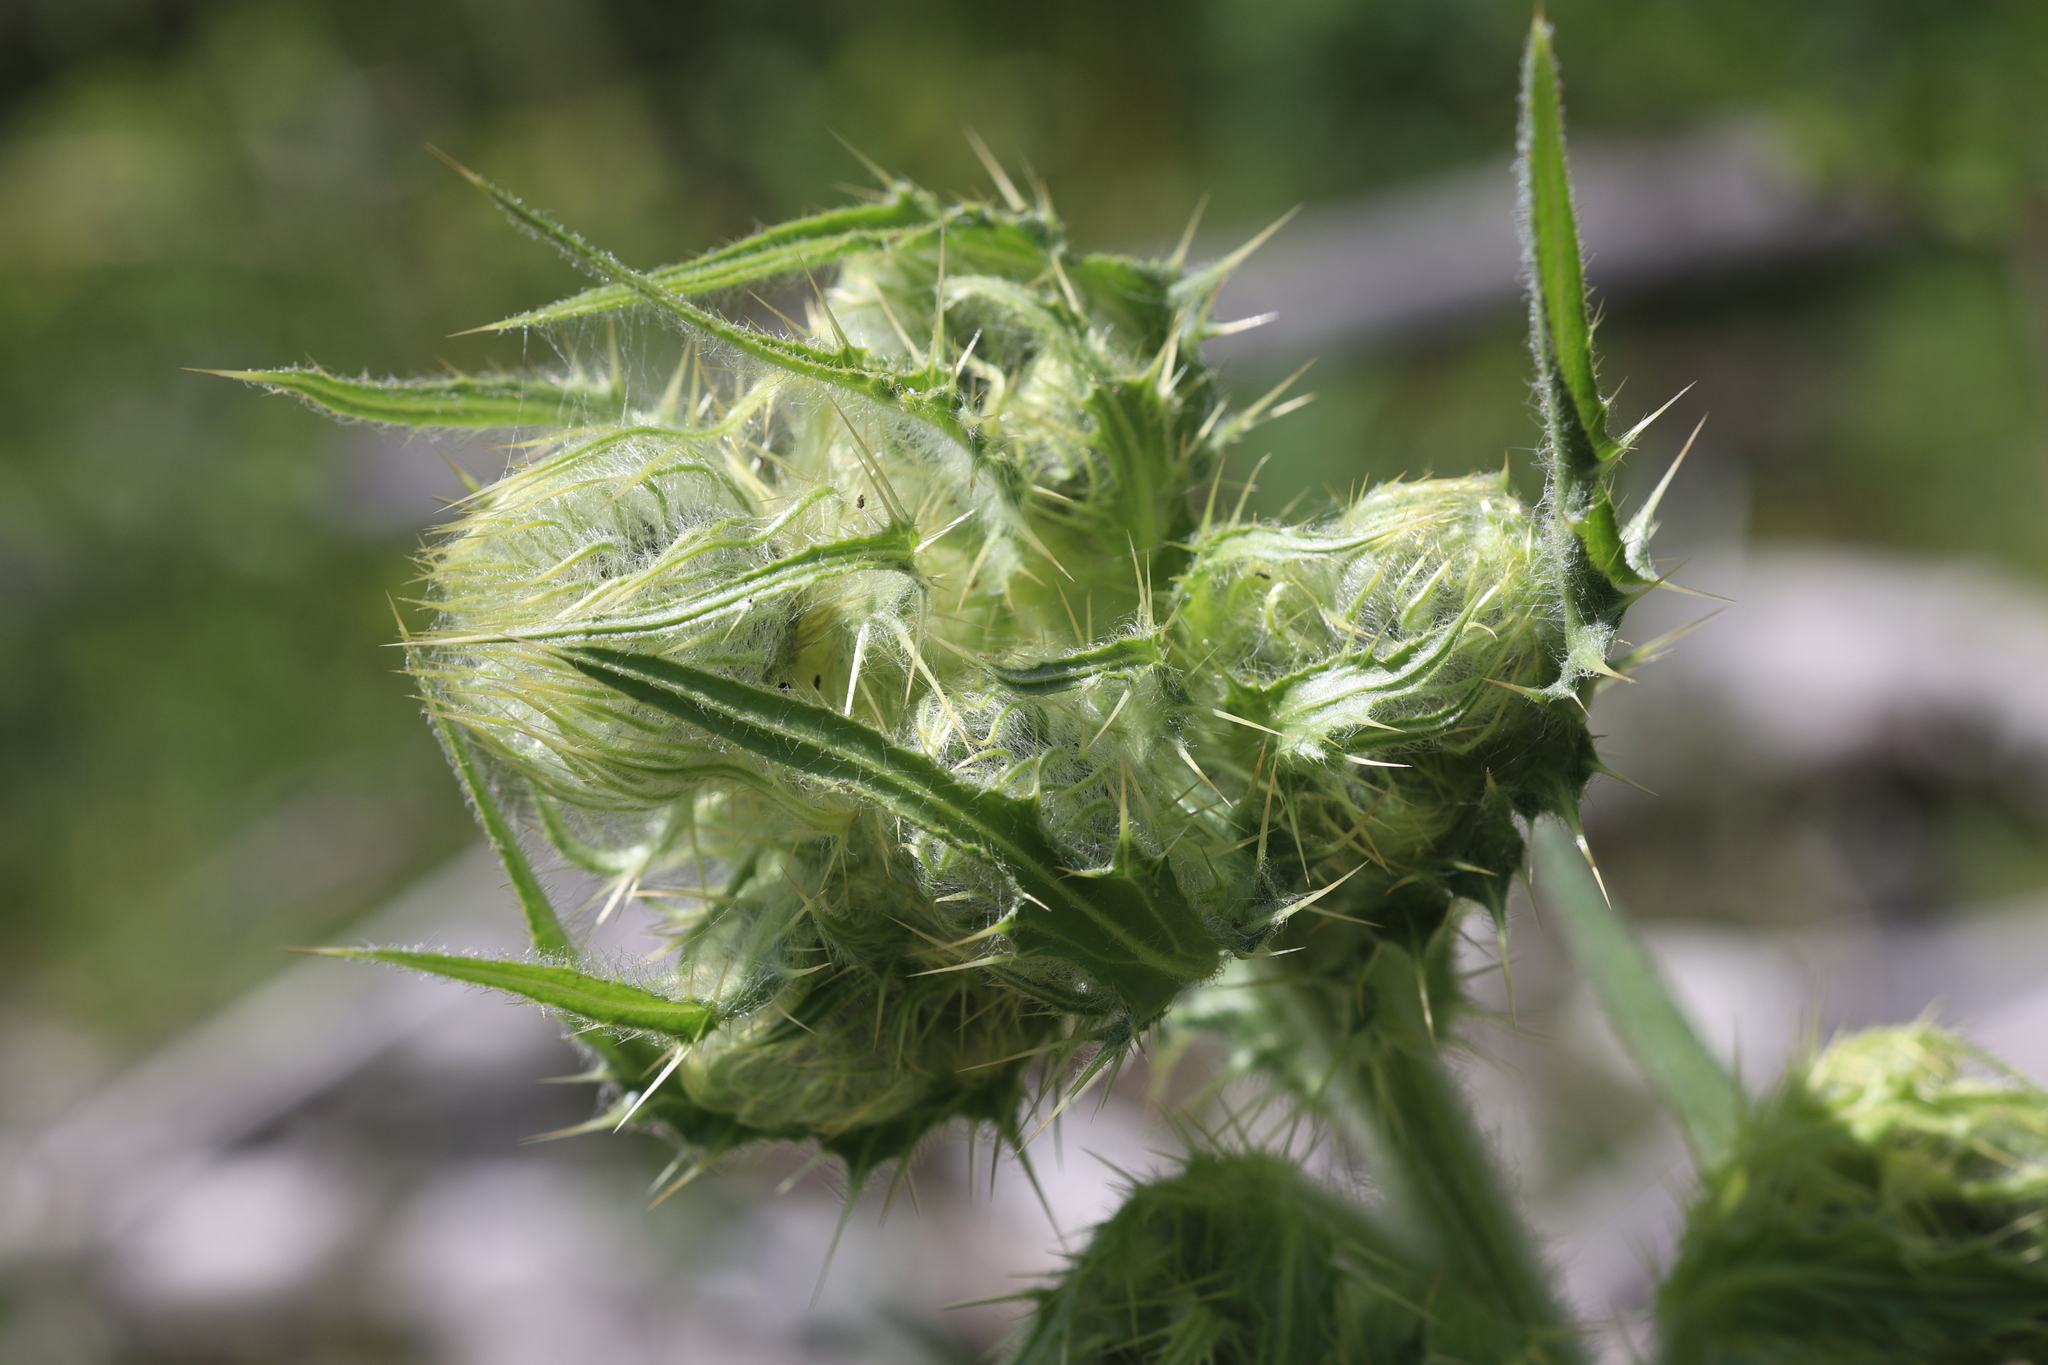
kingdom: Plantae
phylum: Tracheophyta
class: Magnoliopsida
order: Asterales
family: Asteraceae
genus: Cirsium
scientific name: Cirsium parryi
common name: Parry's thistle
